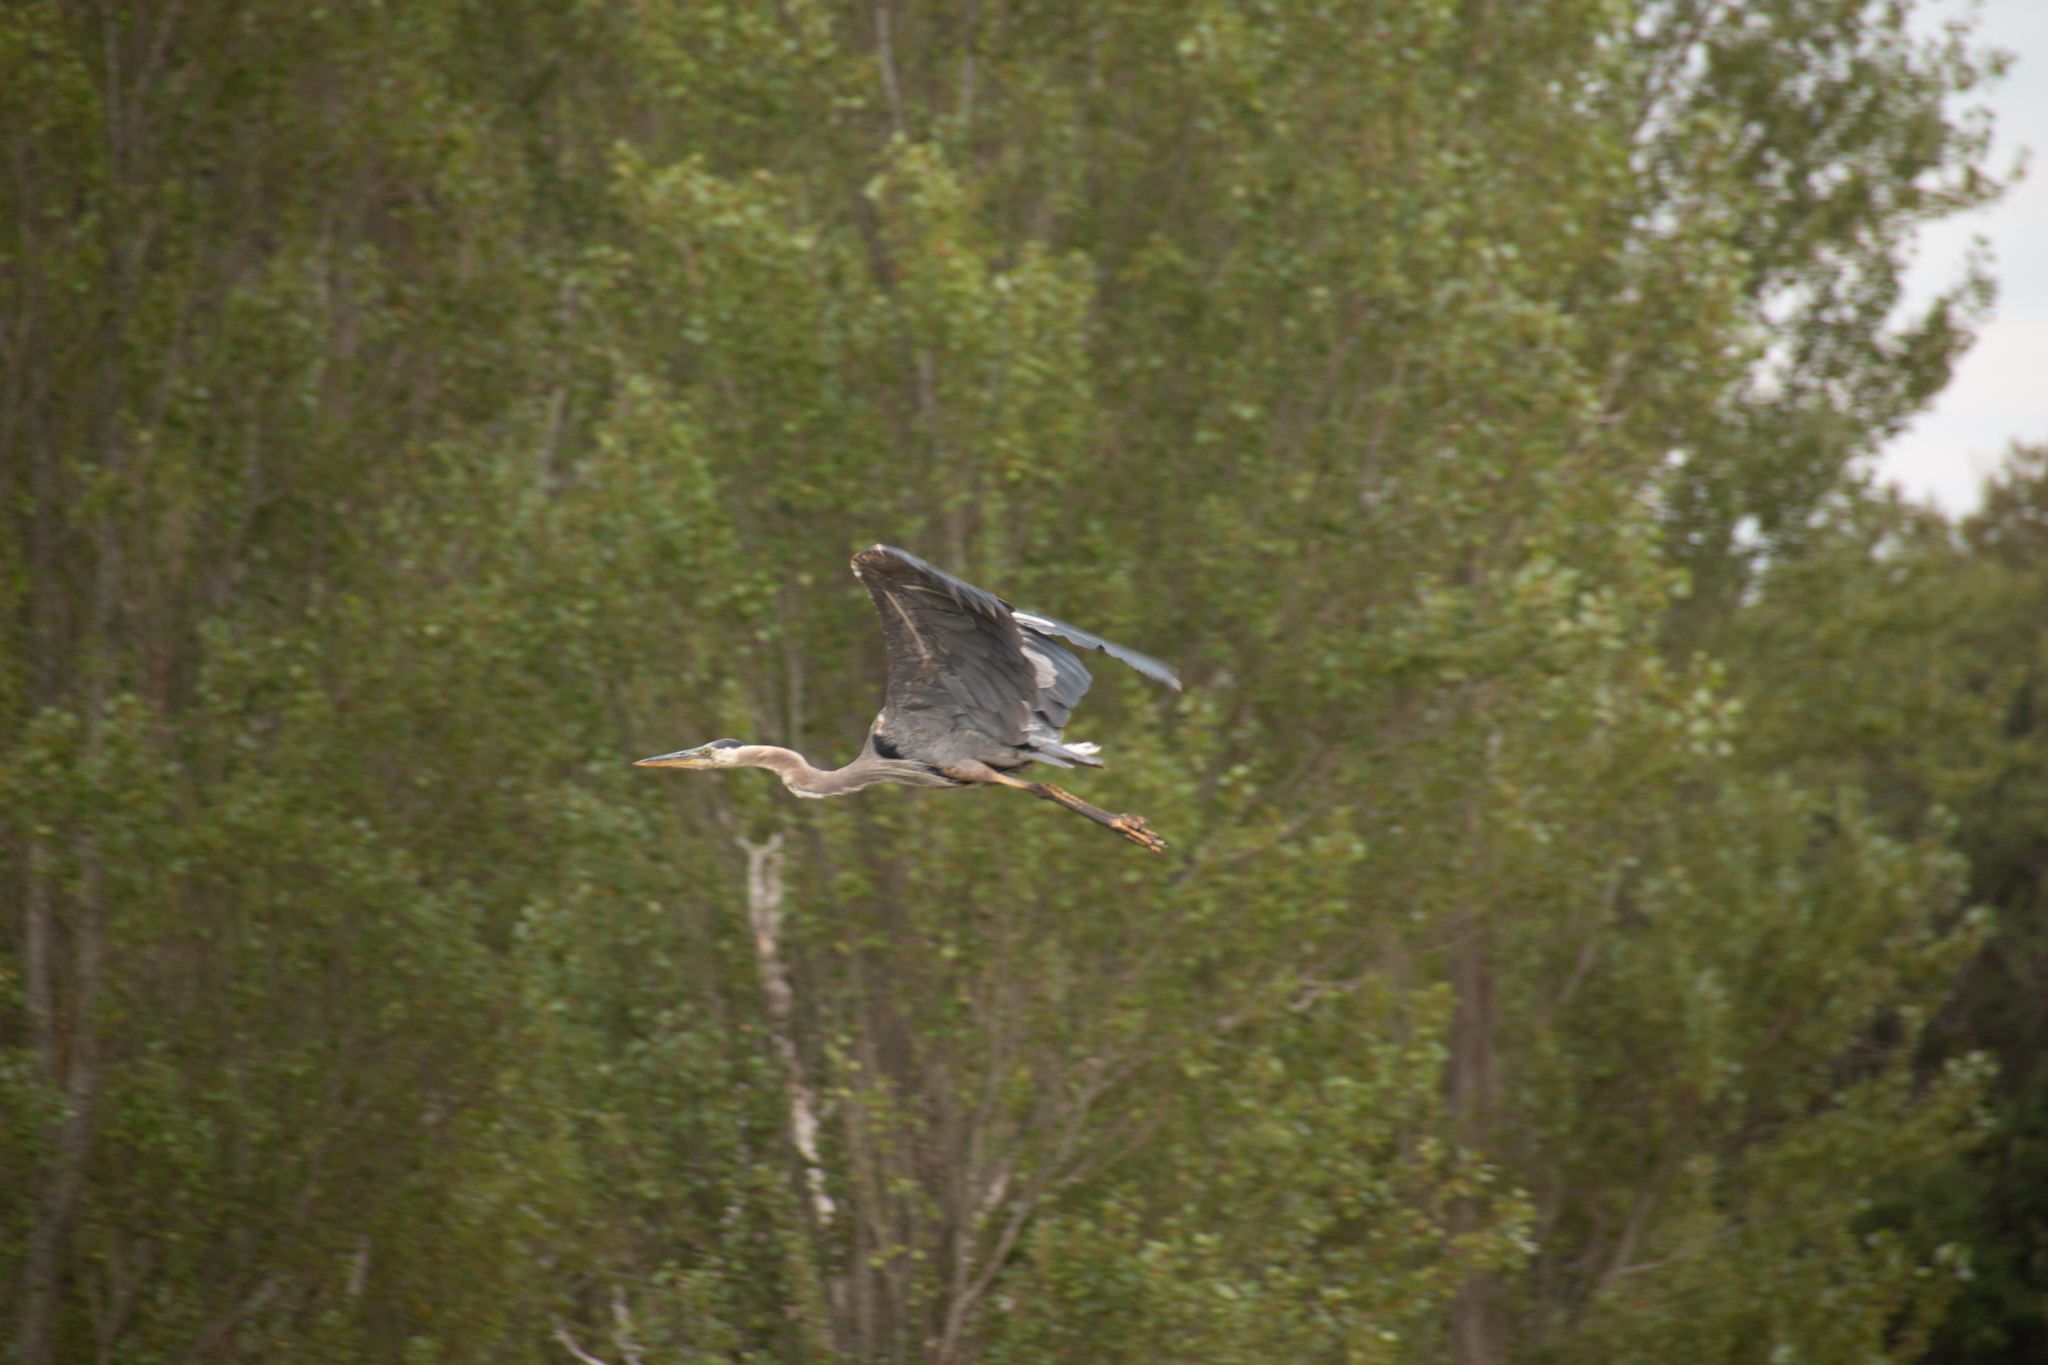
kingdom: Animalia
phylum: Chordata
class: Aves
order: Pelecaniformes
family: Ardeidae
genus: Ardea
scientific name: Ardea herodias
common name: Great blue heron
